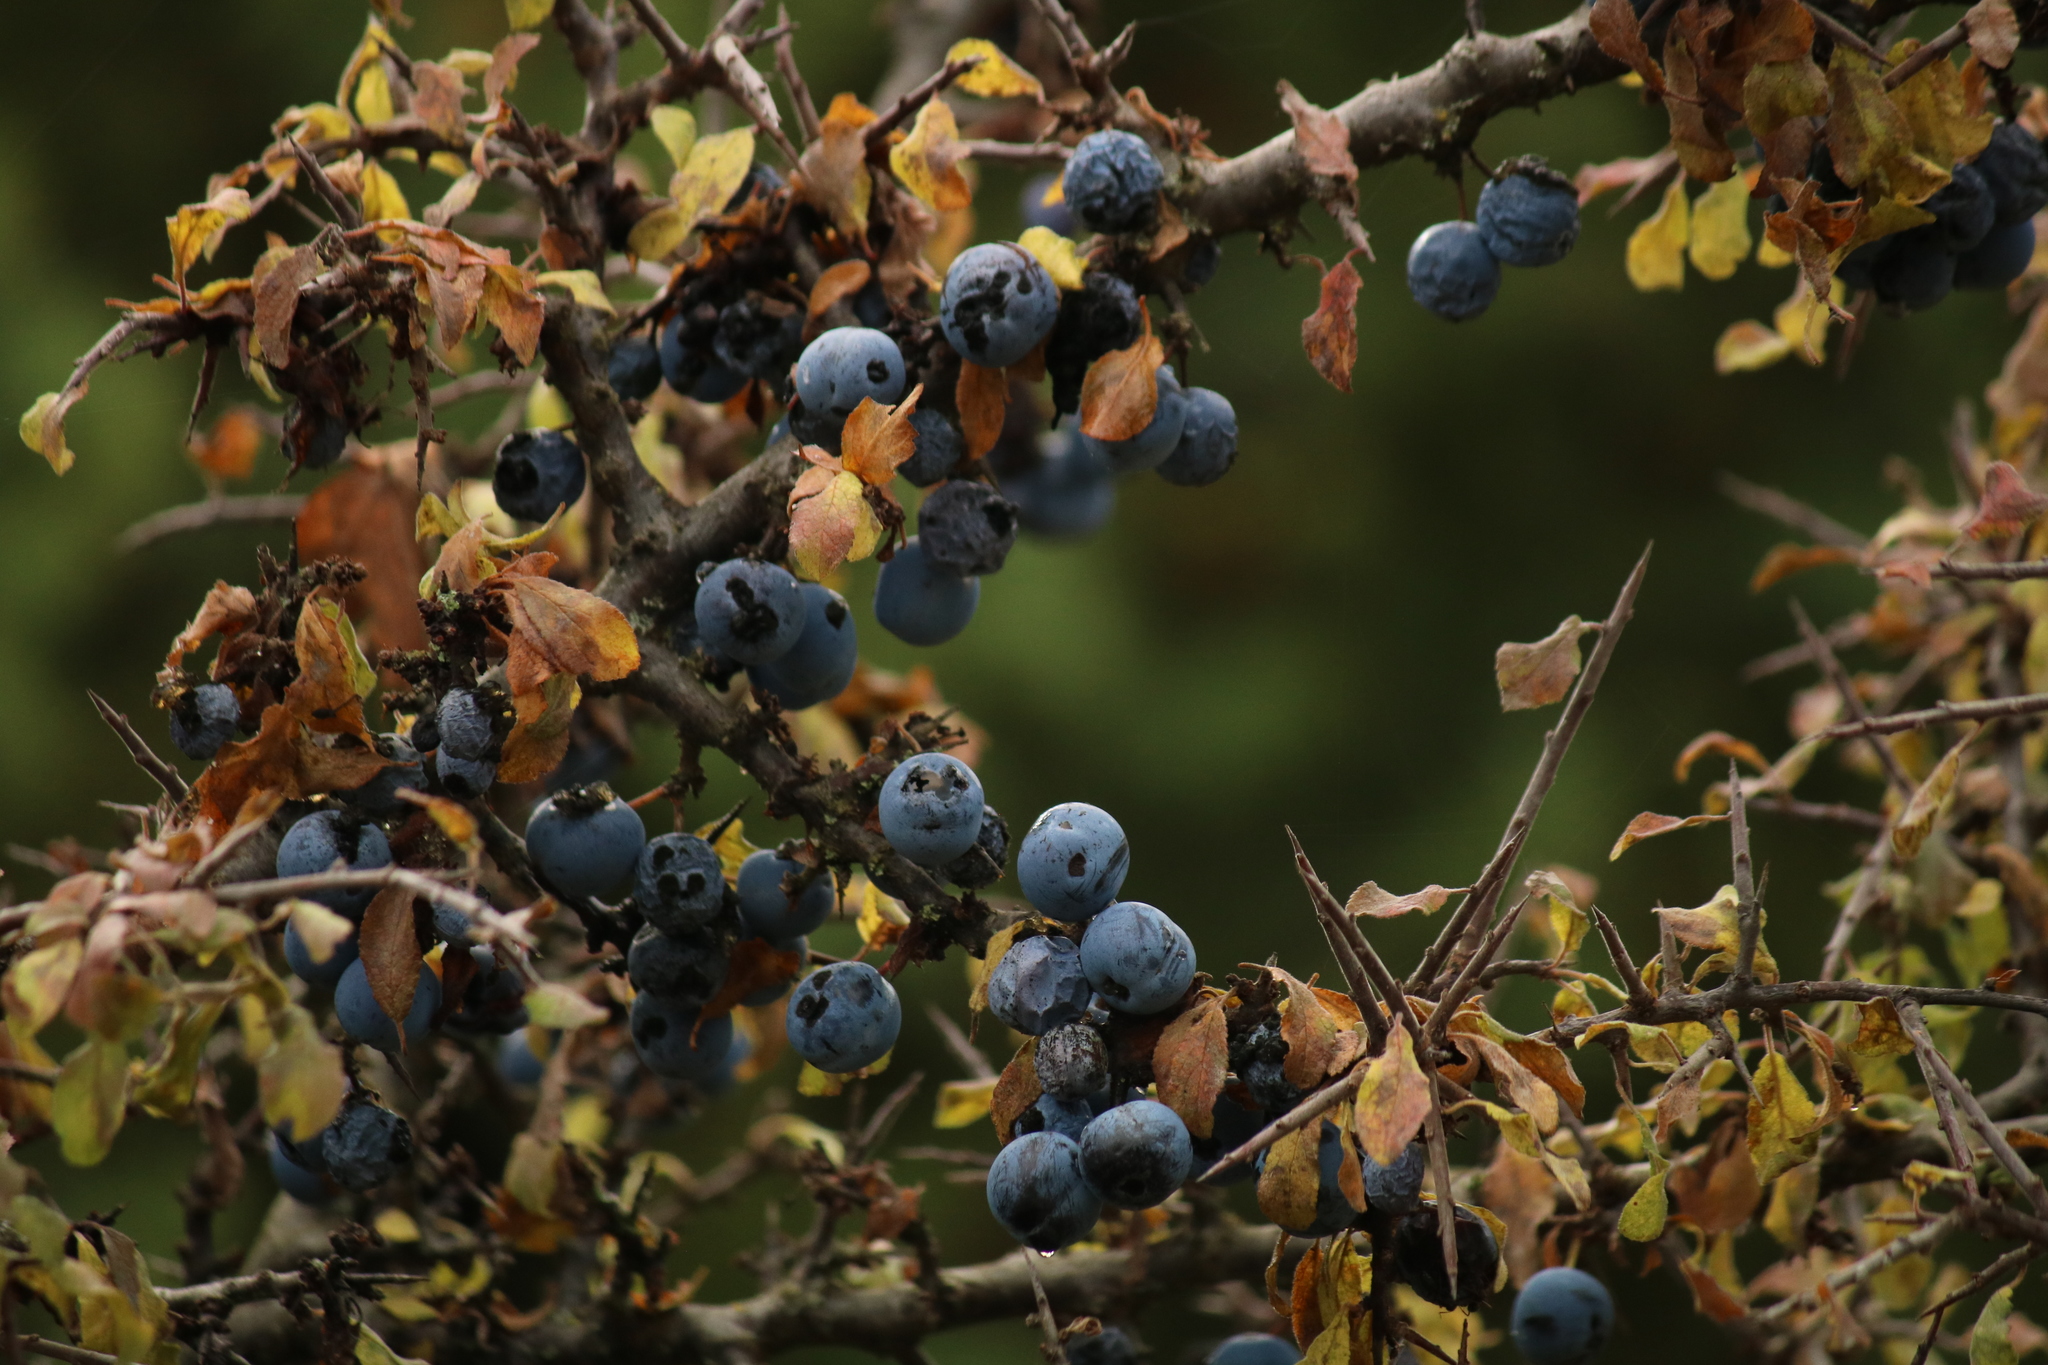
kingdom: Plantae
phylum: Tracheophyta
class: Magnoliopsida
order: Rosales
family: Rosaceae
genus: Prunus
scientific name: Prunus spinosa
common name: Blackthorn
